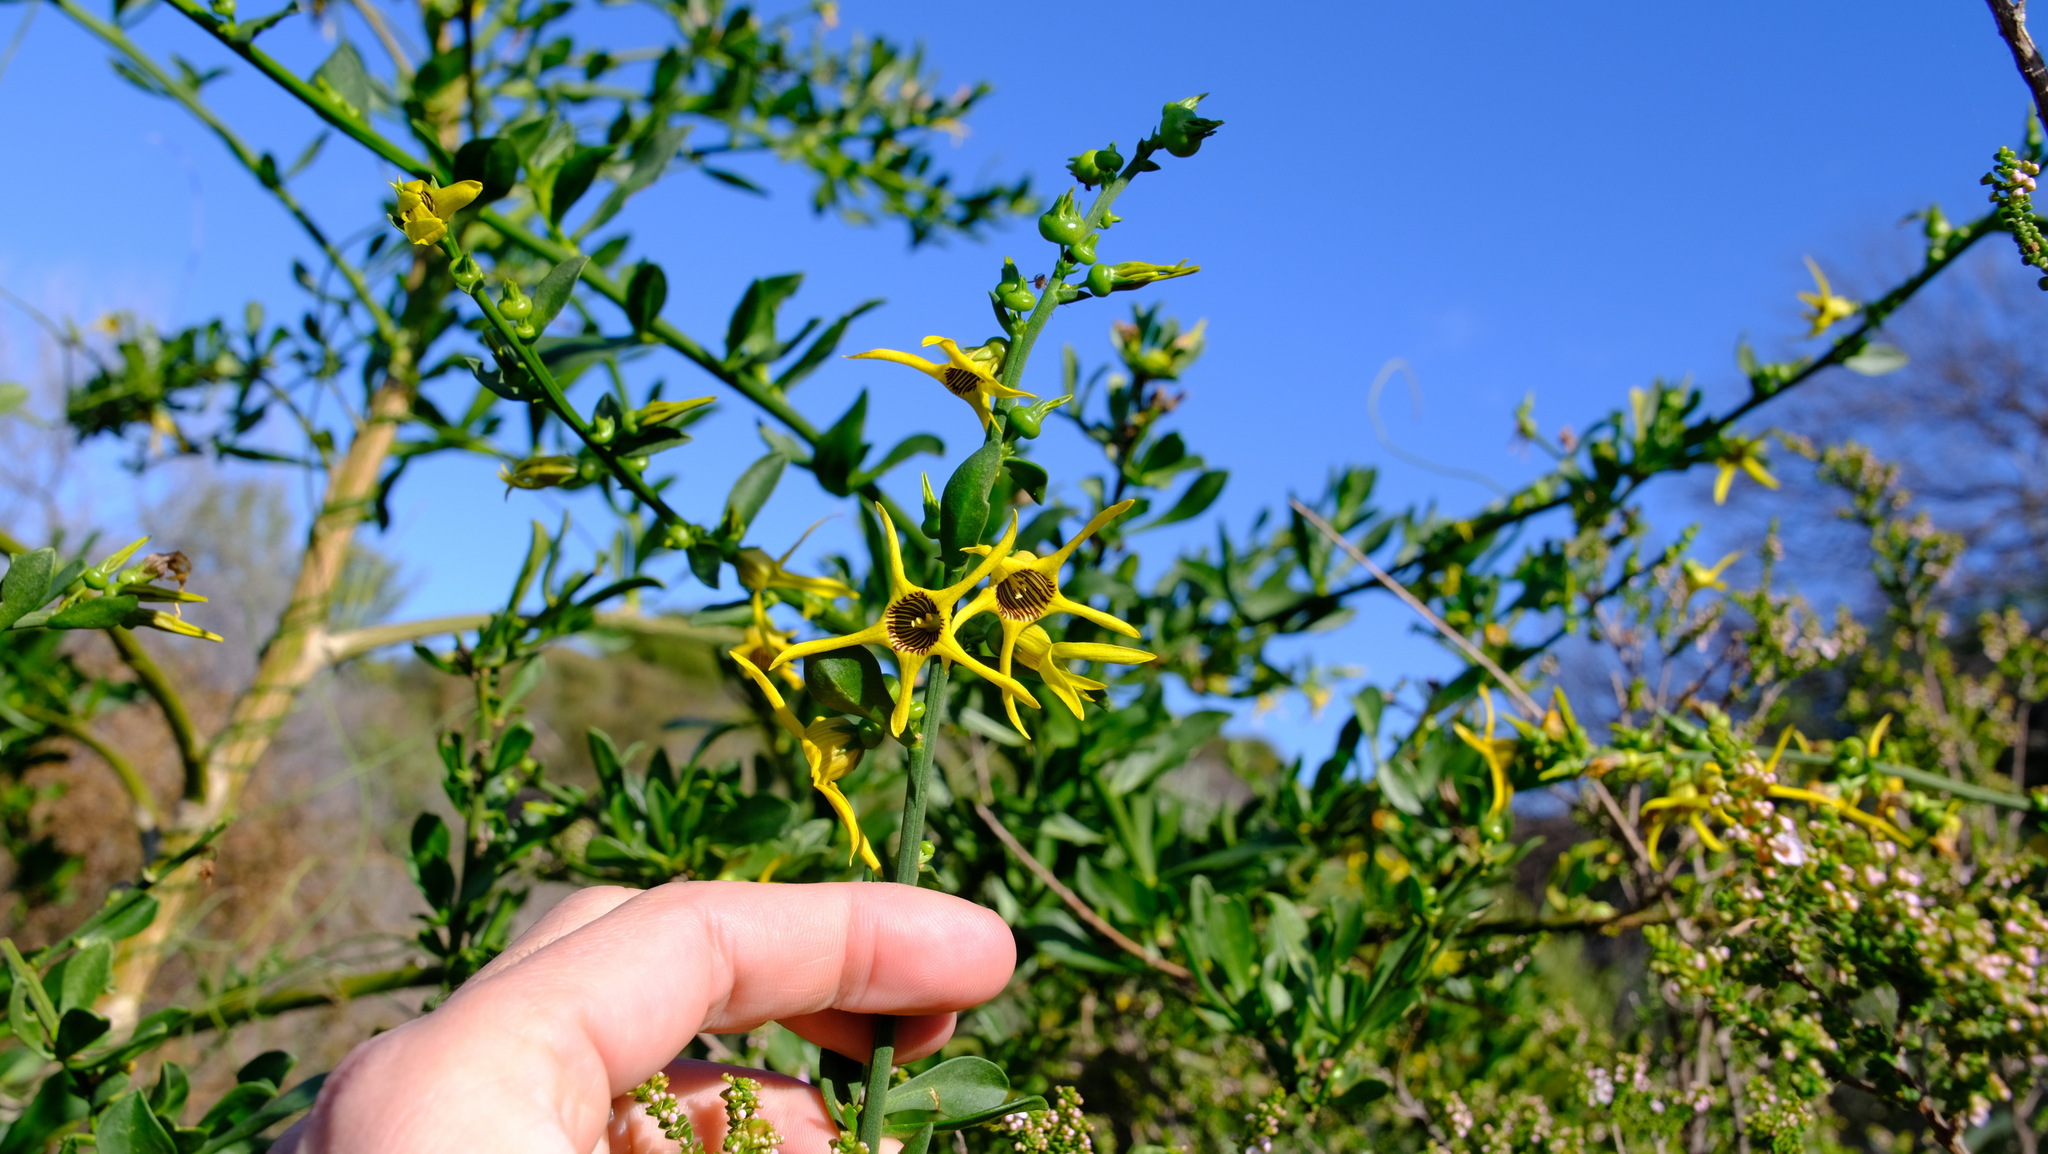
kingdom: Plantae
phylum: Tracheophyta
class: Magnoliopsida
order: Solanales
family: Solanaceae
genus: Anthocercis
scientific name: Anthocercis ilicifolia
